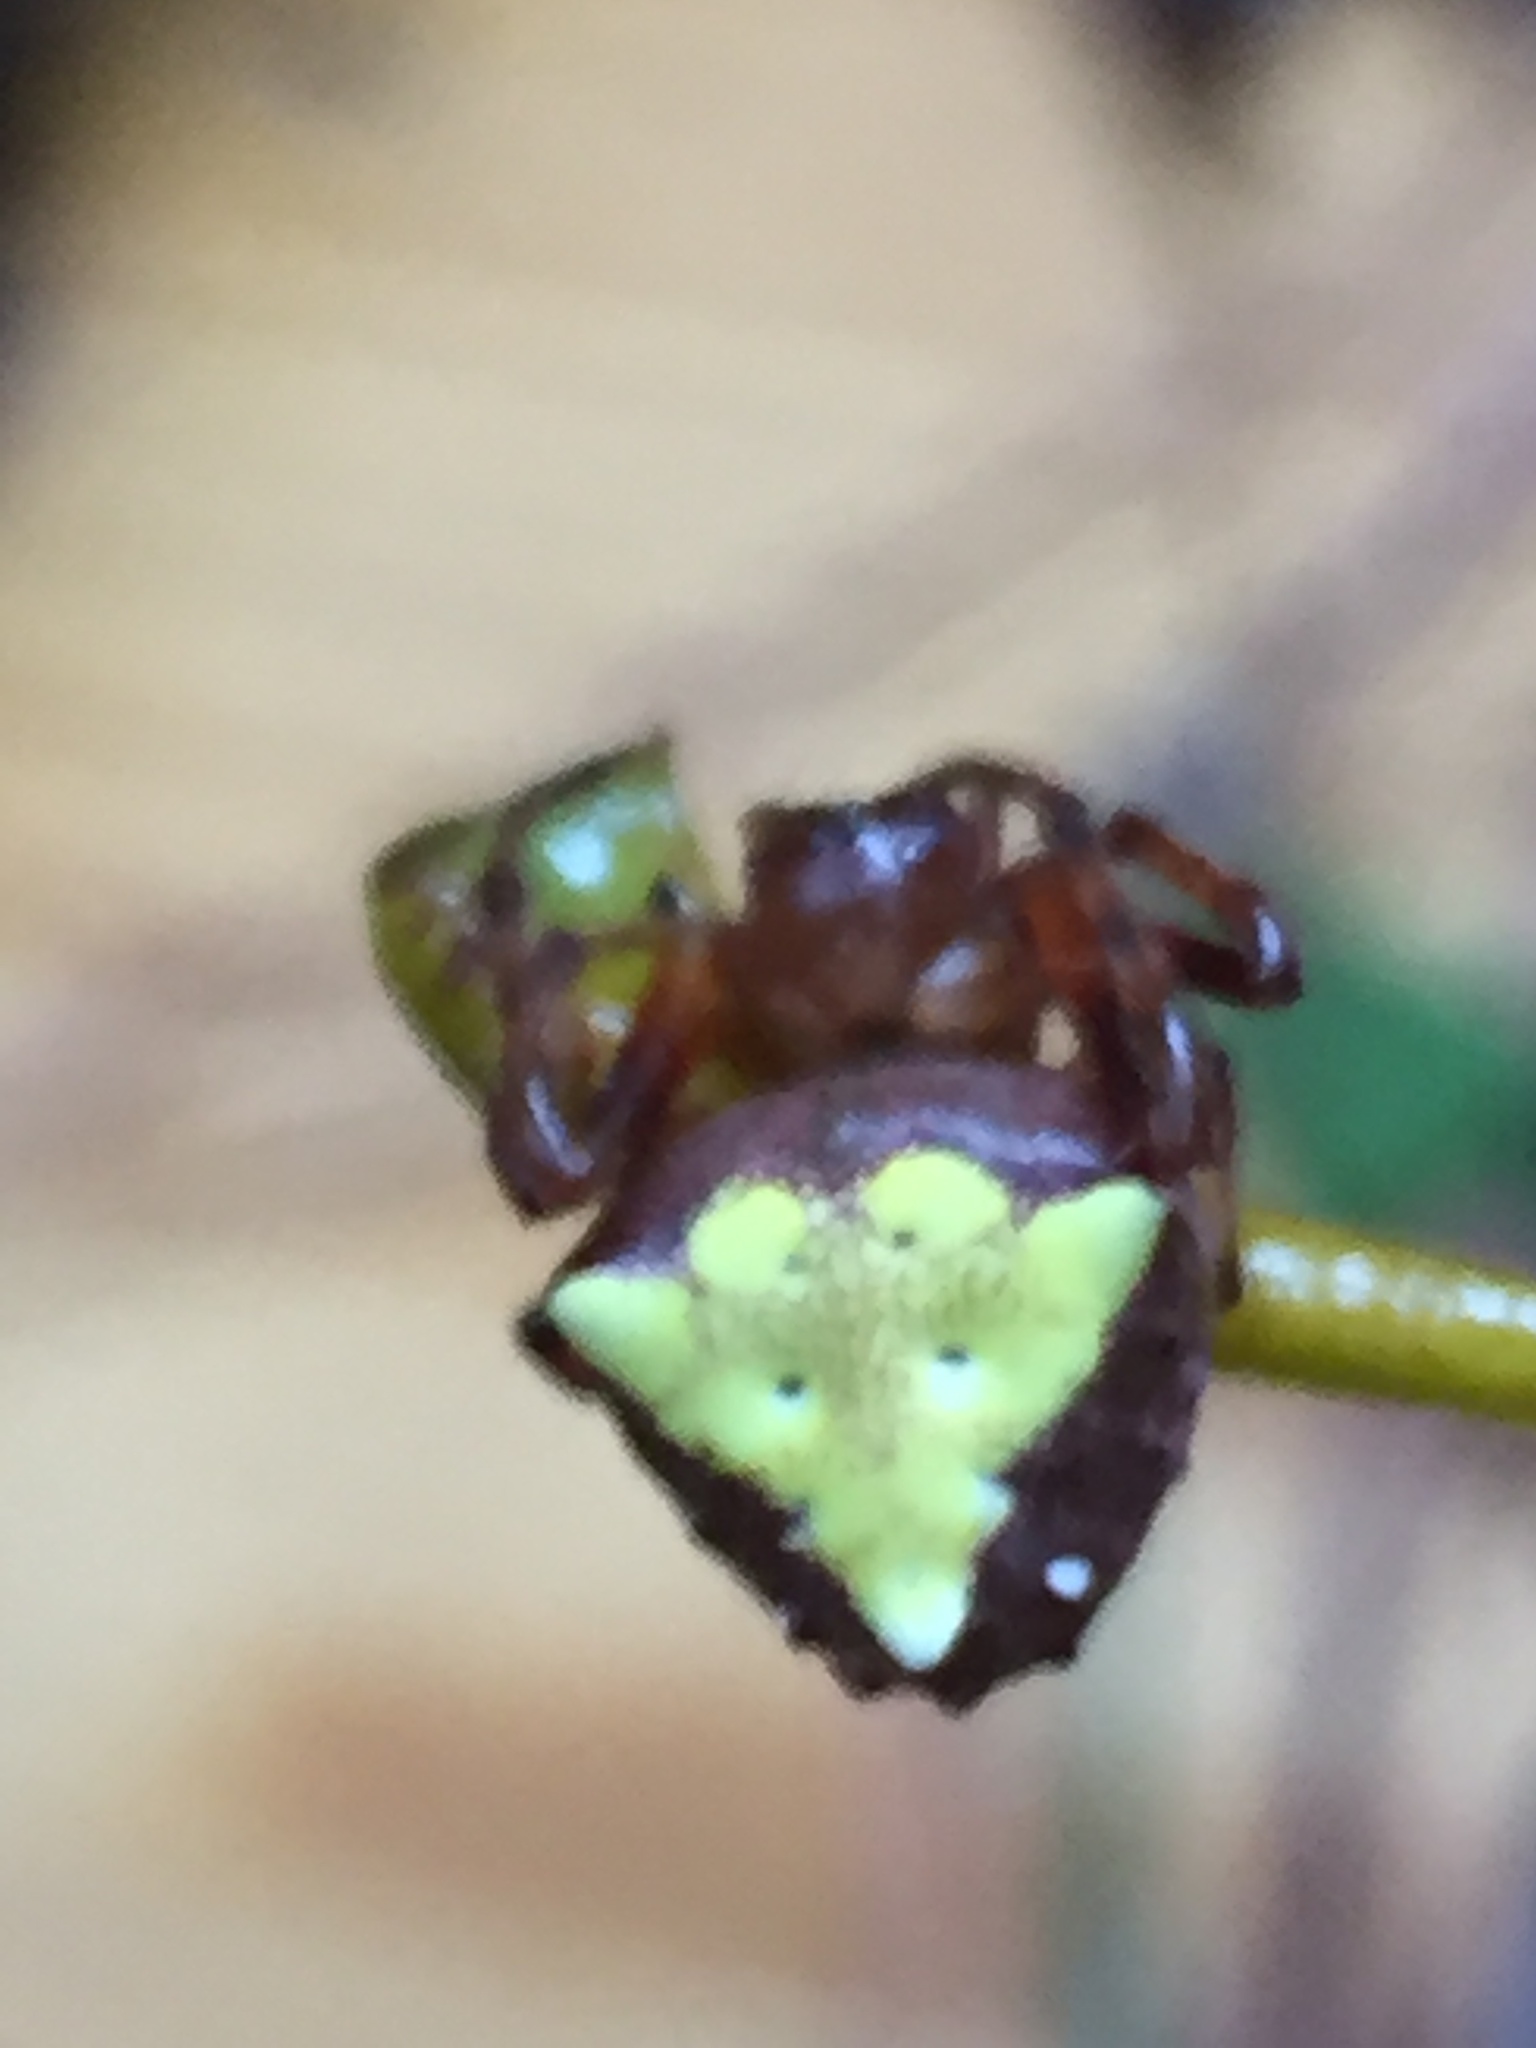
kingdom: Animalia
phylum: Arthropoda
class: Arachnida
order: Araneae
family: Araneidae
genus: Verrucosa
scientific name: Verrucosa arenata
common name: Orb weavers
